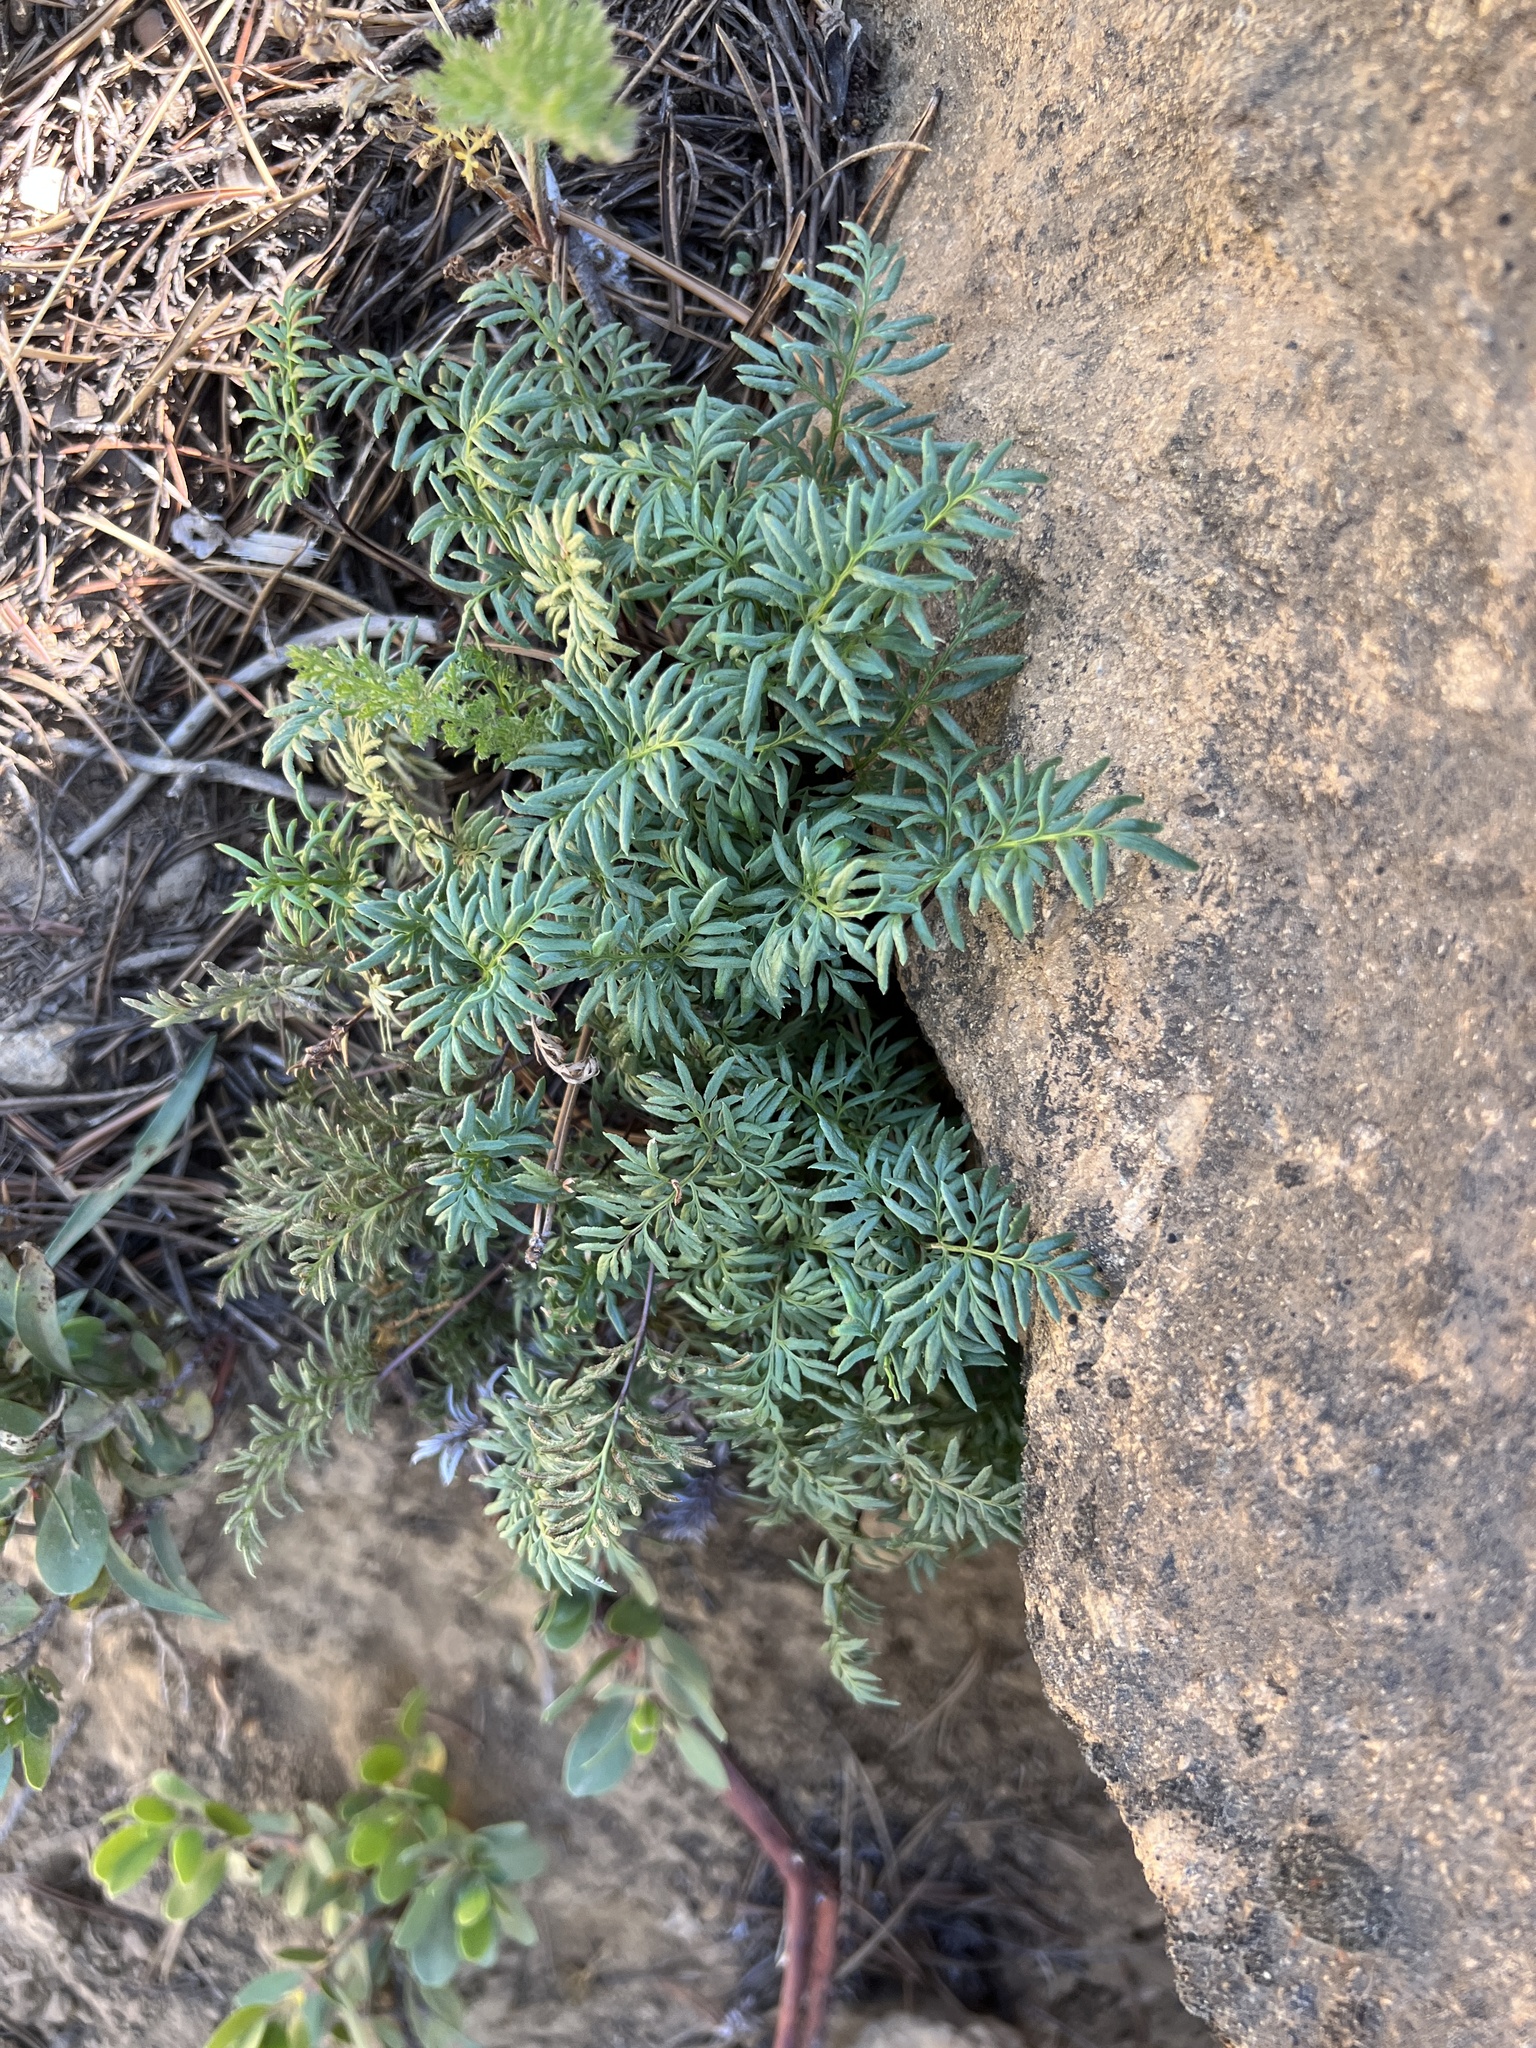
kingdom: Plantae
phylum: Tracheophyta
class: Polypodiopsida
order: Polypodiales
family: Pteridaceae
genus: Aspidotis
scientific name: Aspidotis densa
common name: Indian's dream
